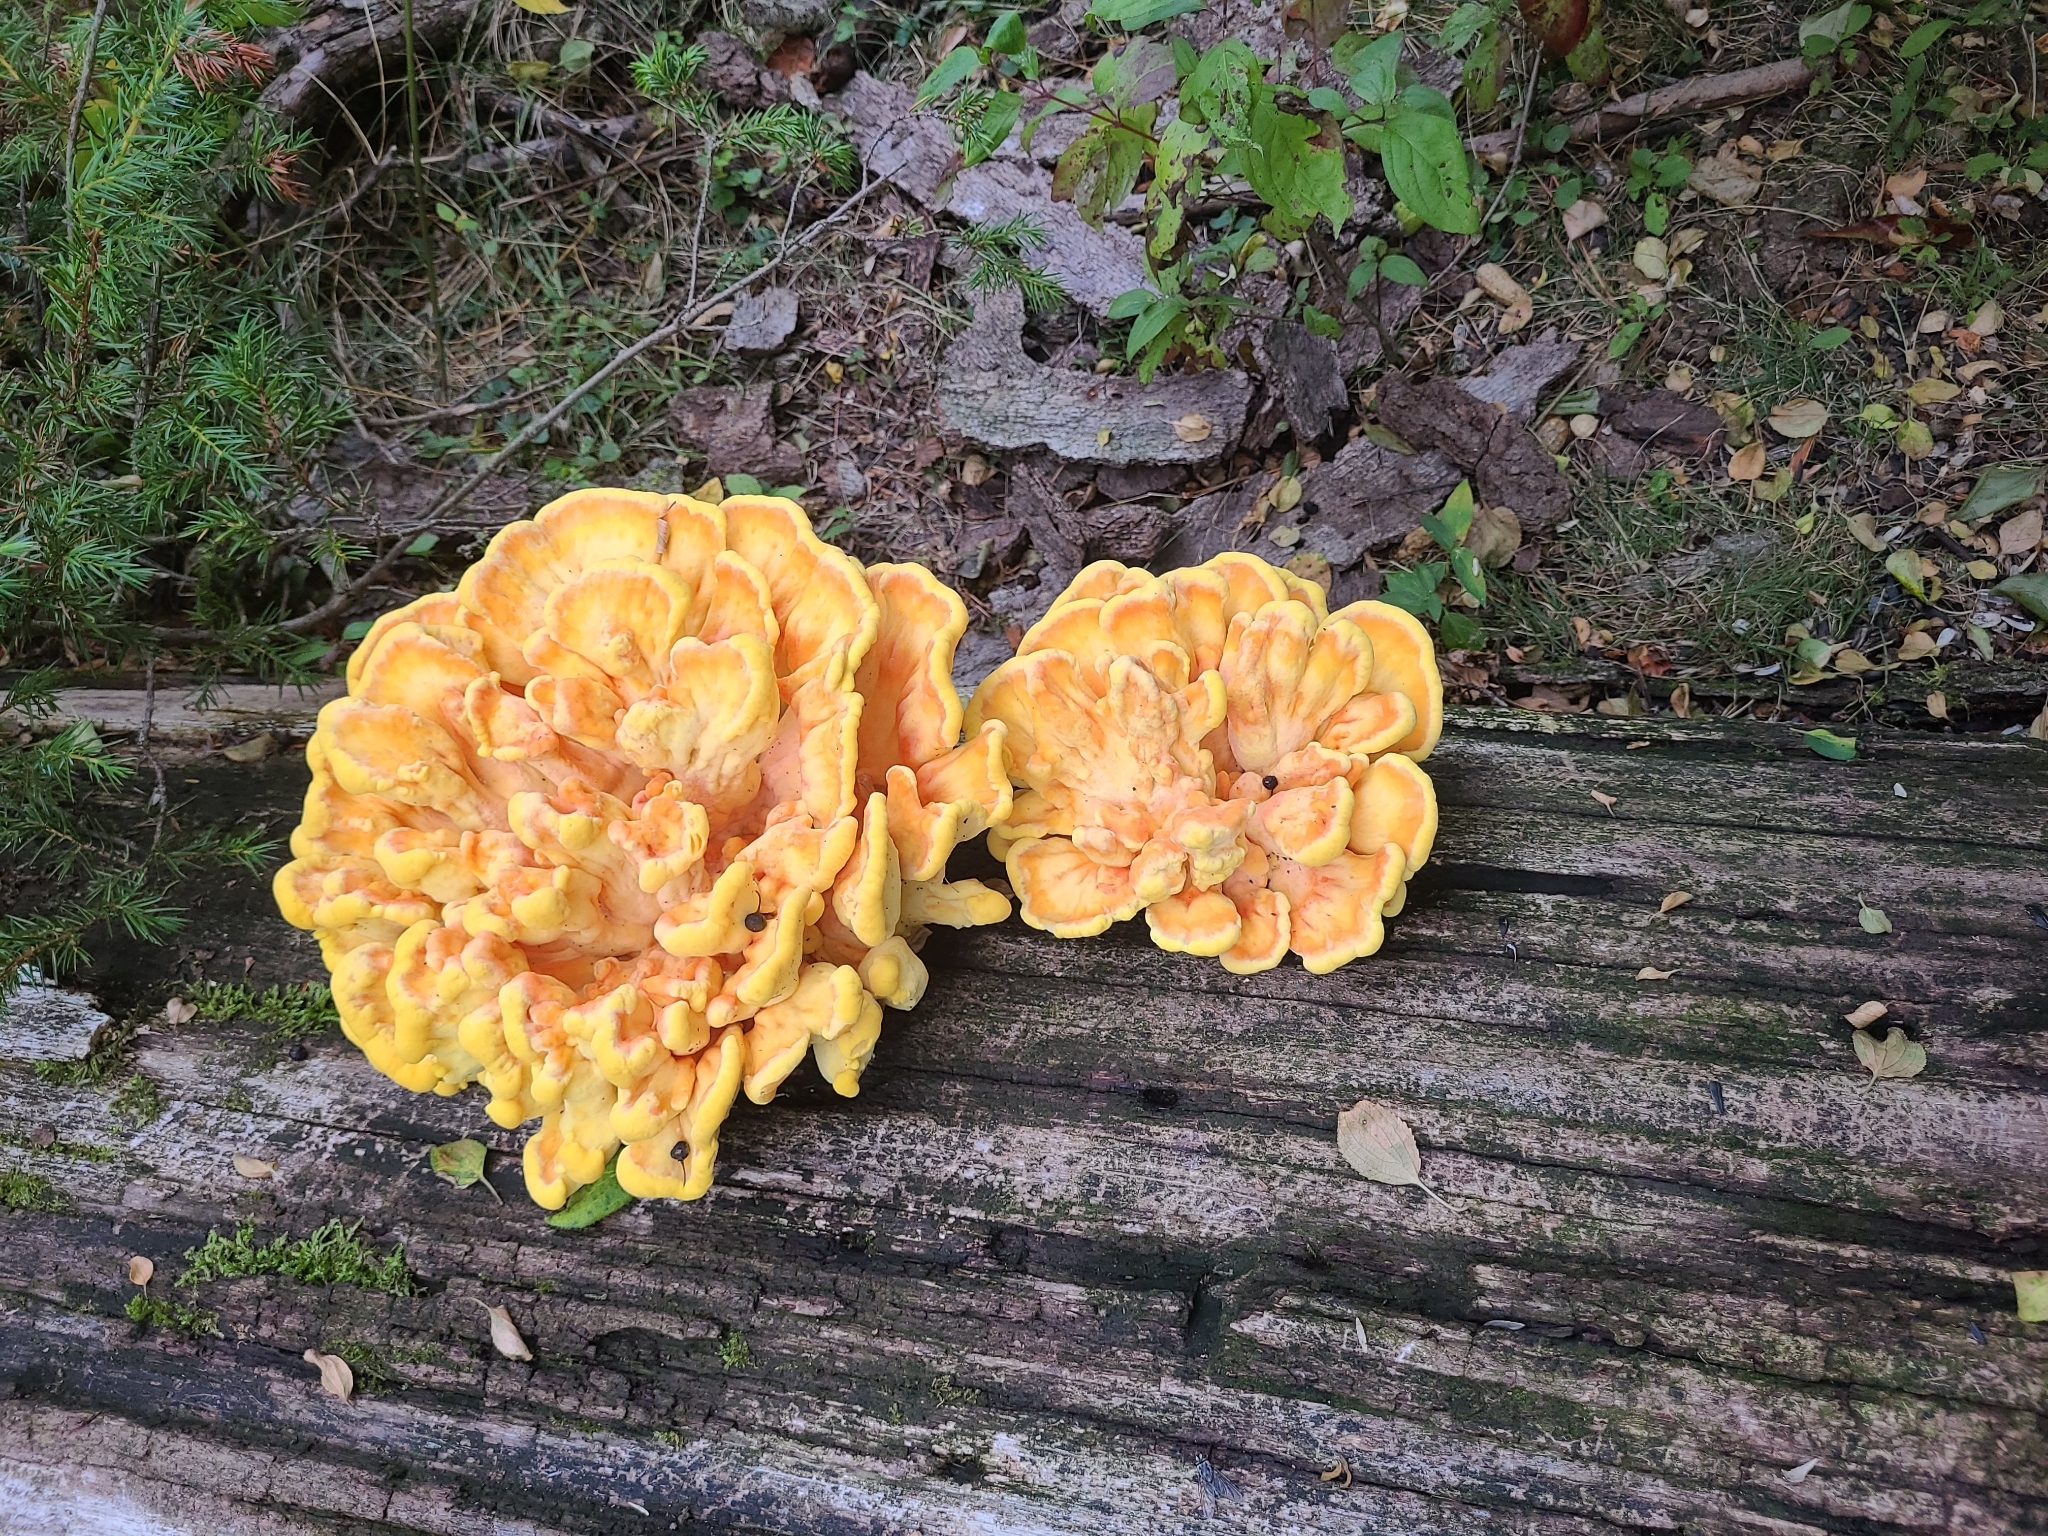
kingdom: Fungi
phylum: Basidiomycota
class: Agaricomycetes
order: Polyporales
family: Laetiporaceae
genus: Laetiporus
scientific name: Laetiporus sulphureus
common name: Chicken of the woods
